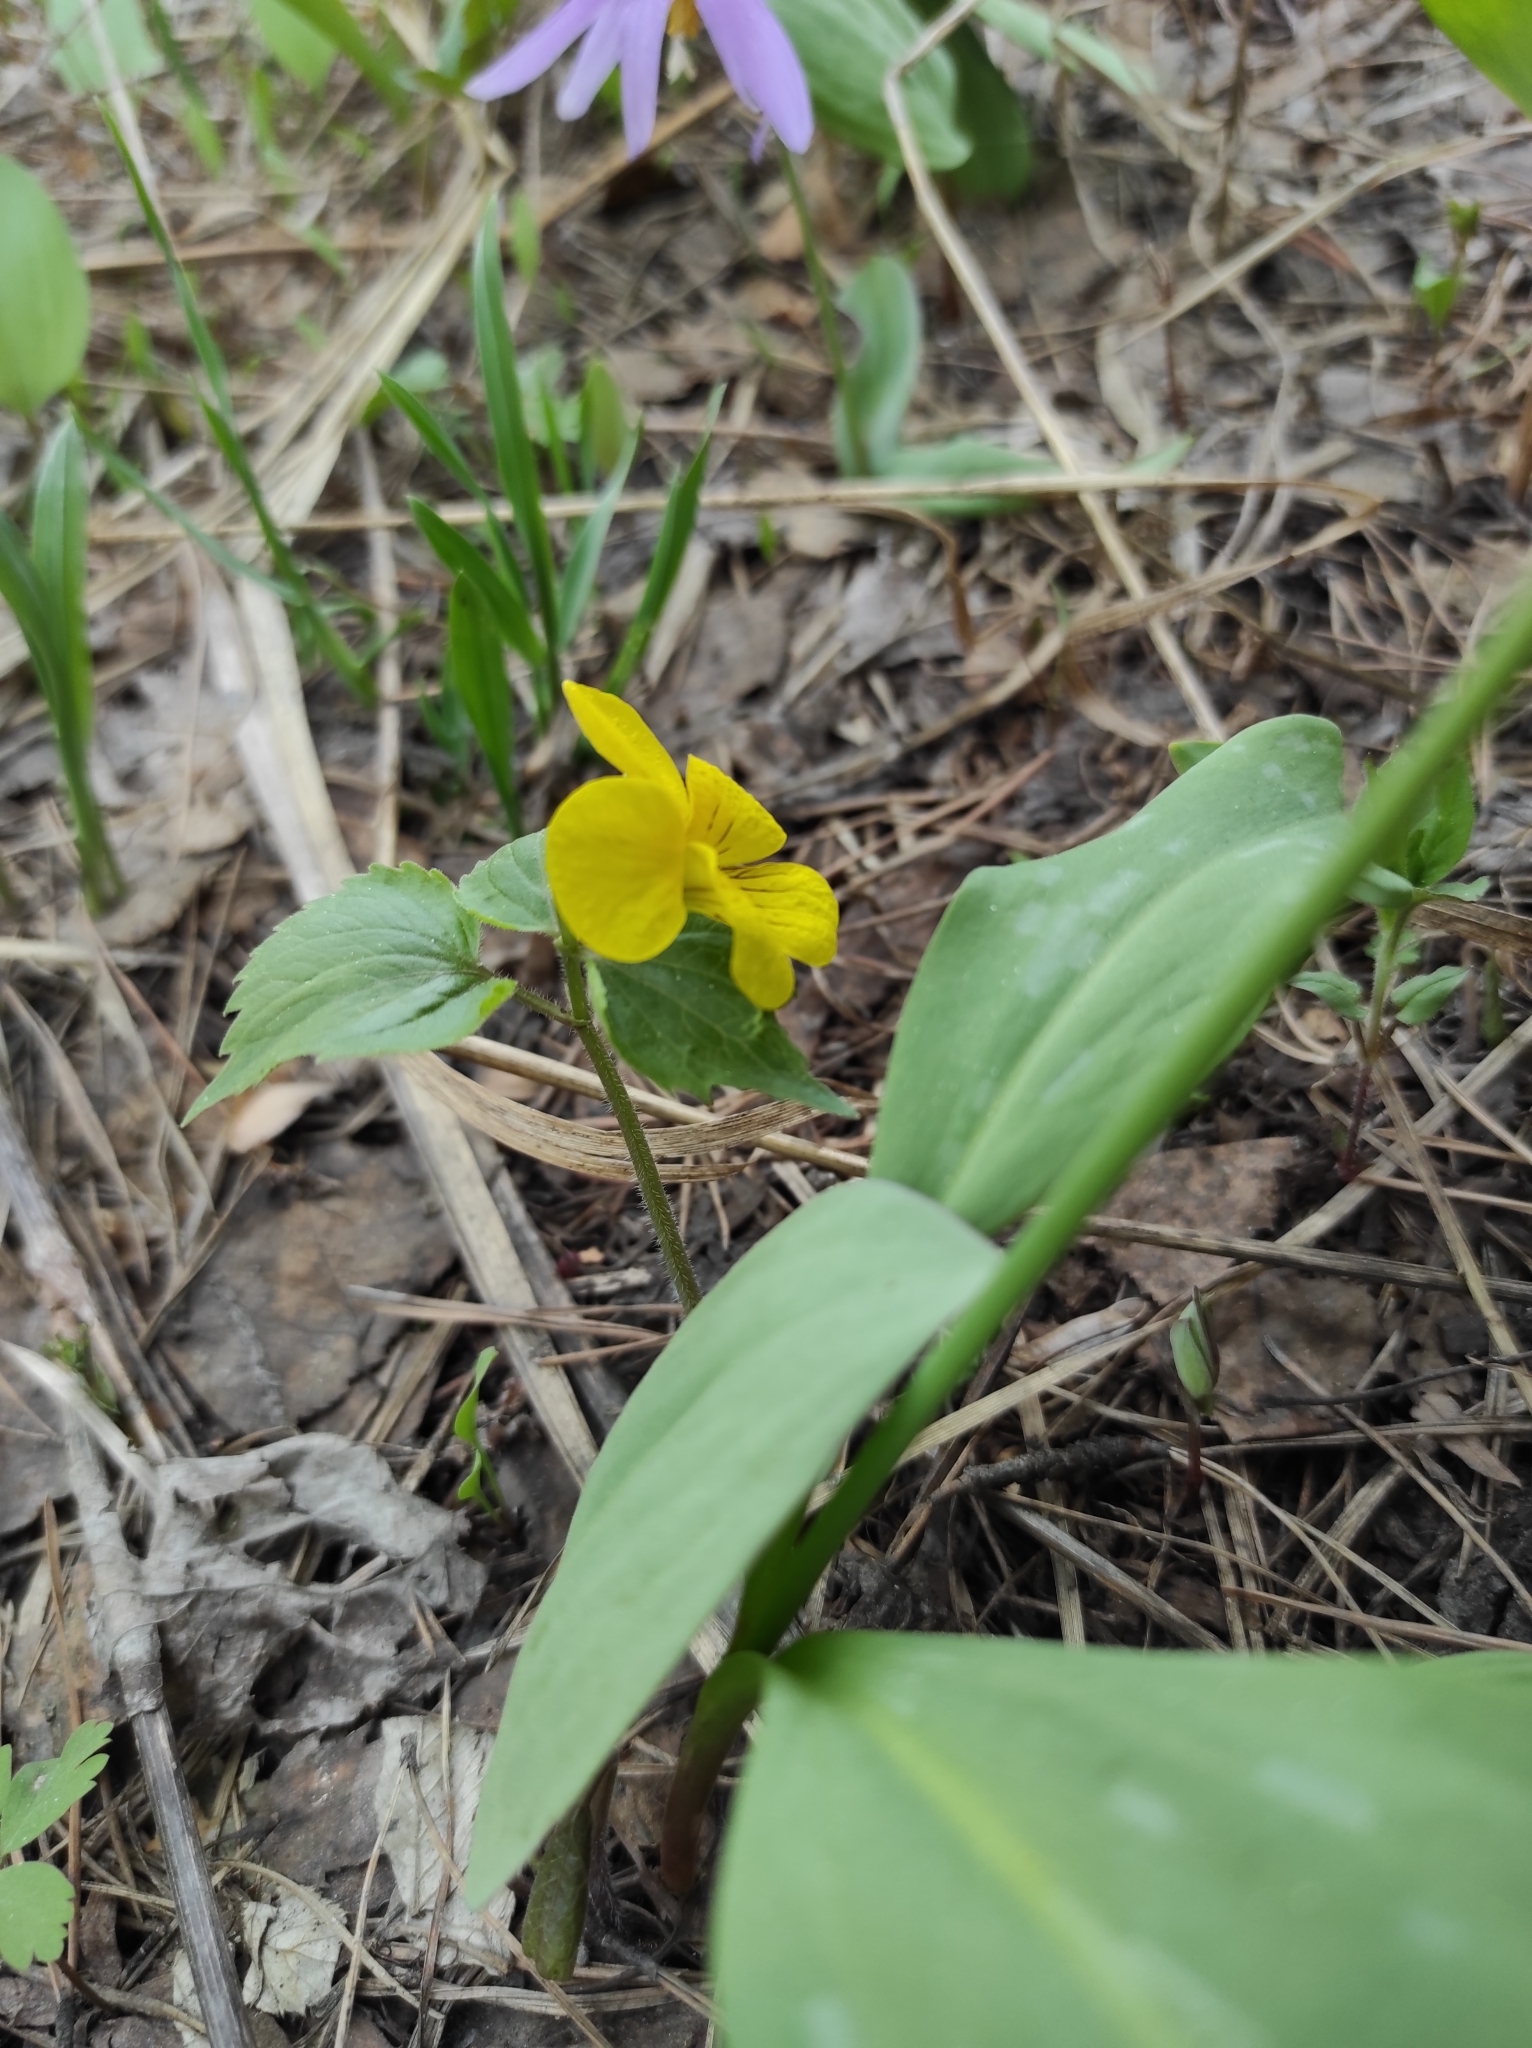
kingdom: Plantae
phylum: Tracheophyta
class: Liliopsida
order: Liliales
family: Liliaceae
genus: Erythronium
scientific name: Erythronium sibiricum
